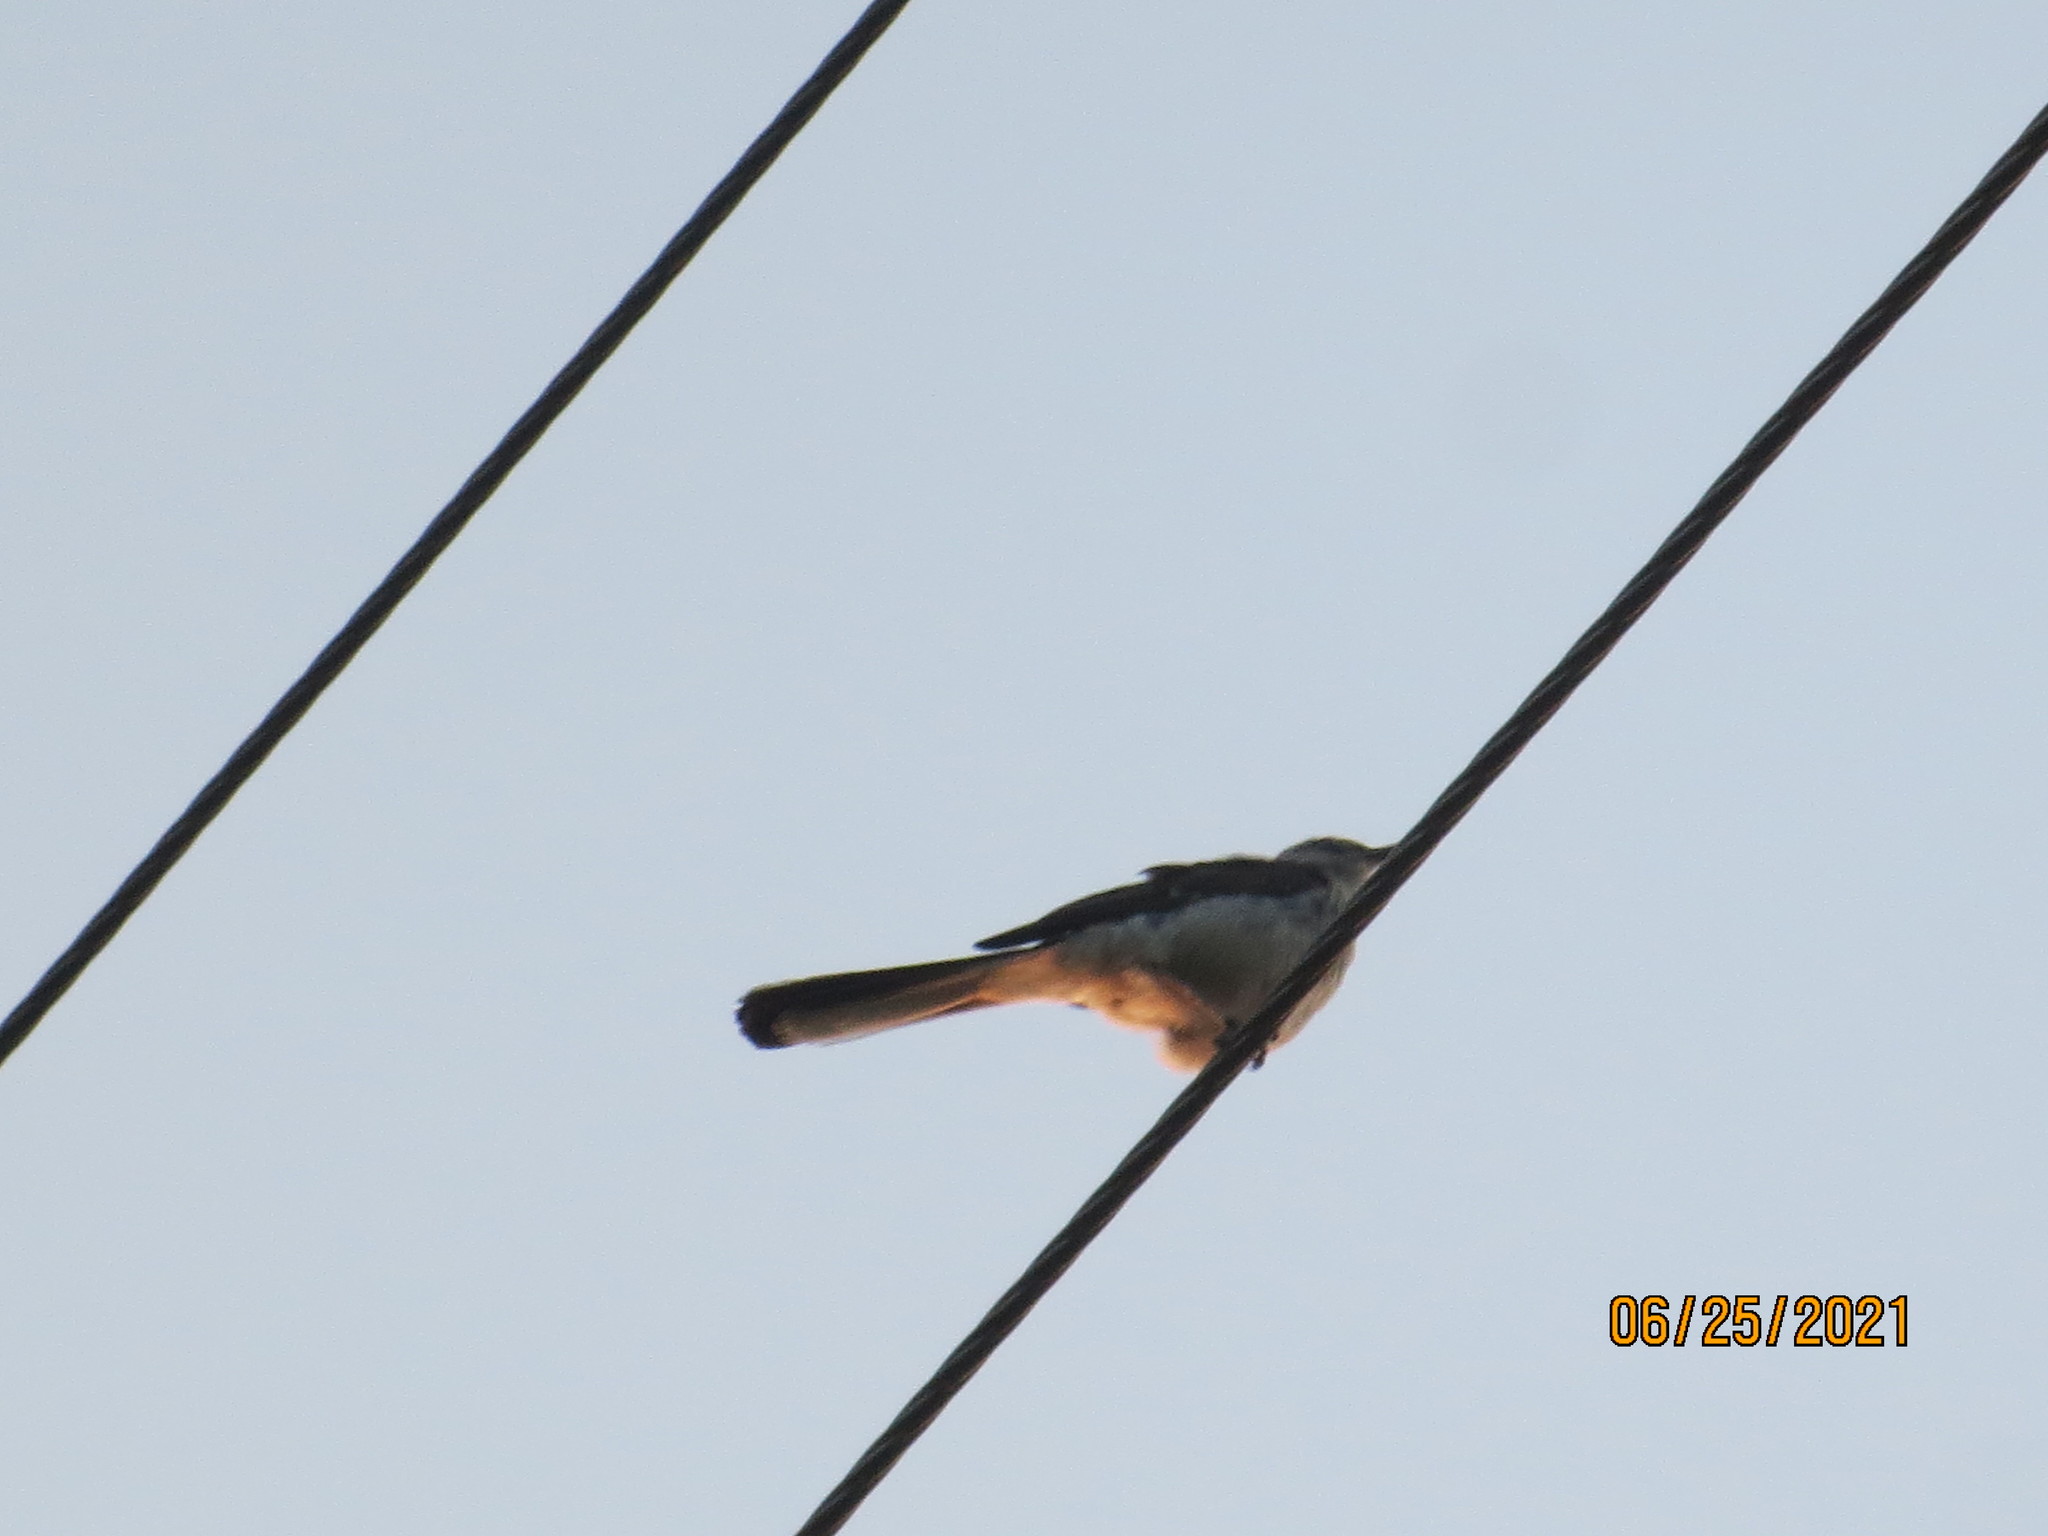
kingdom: Animalia
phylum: Chordata
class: Aves
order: Passeriformes
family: Mimidae
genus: Mimus
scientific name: Mimus polyglottos
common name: Northern mockingbird
